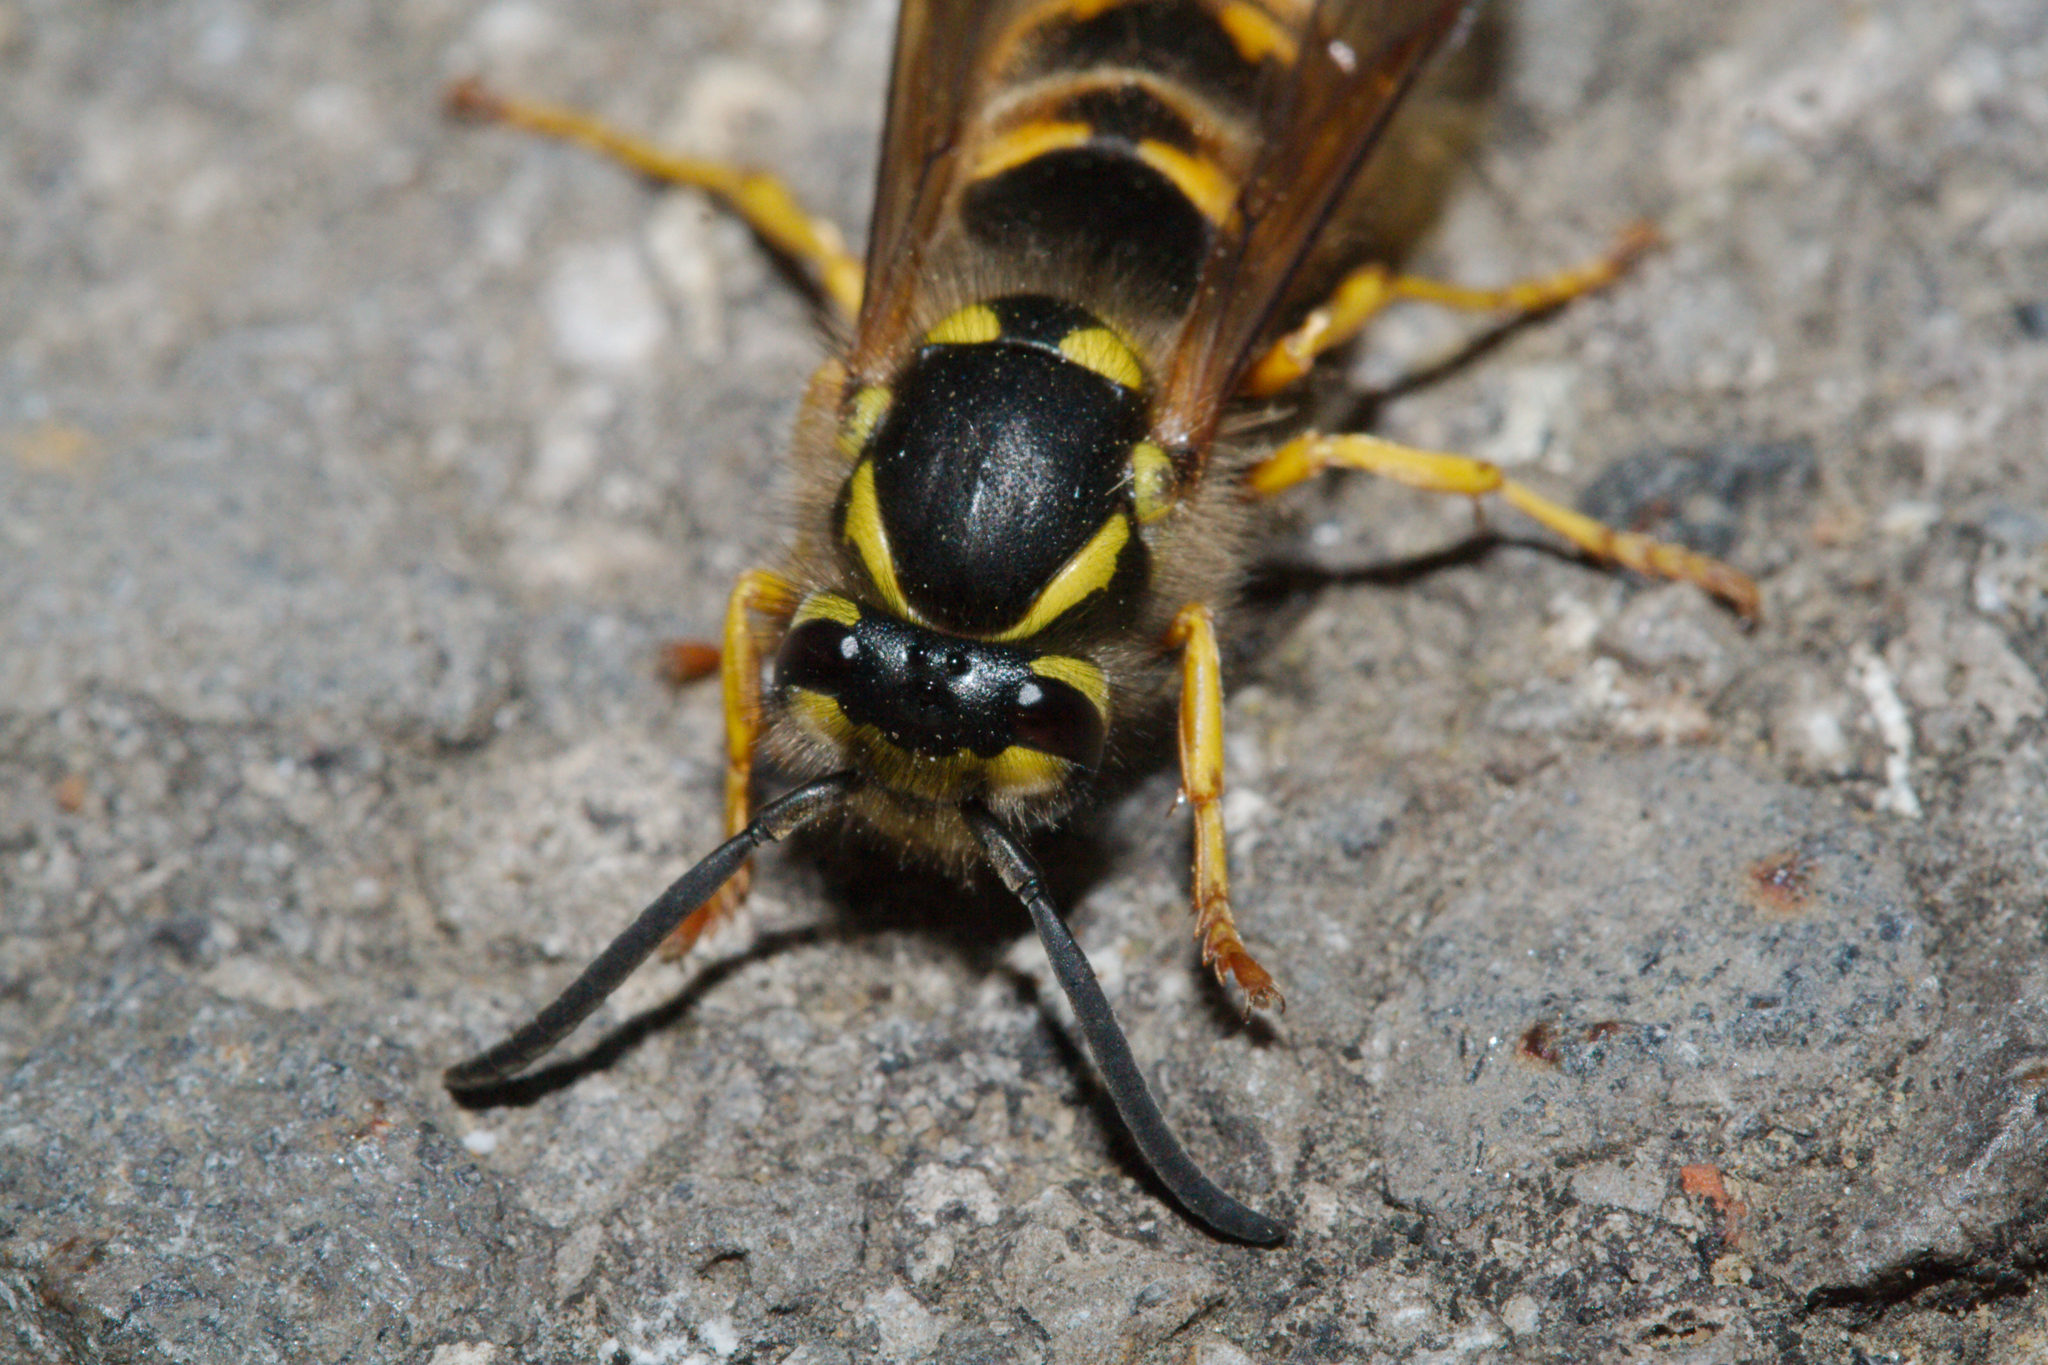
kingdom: Animalia
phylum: Arthropoda
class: Insecta
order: Hymenoptera
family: Vespidae
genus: Vespula
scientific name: Vespula germanica
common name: German wasp
